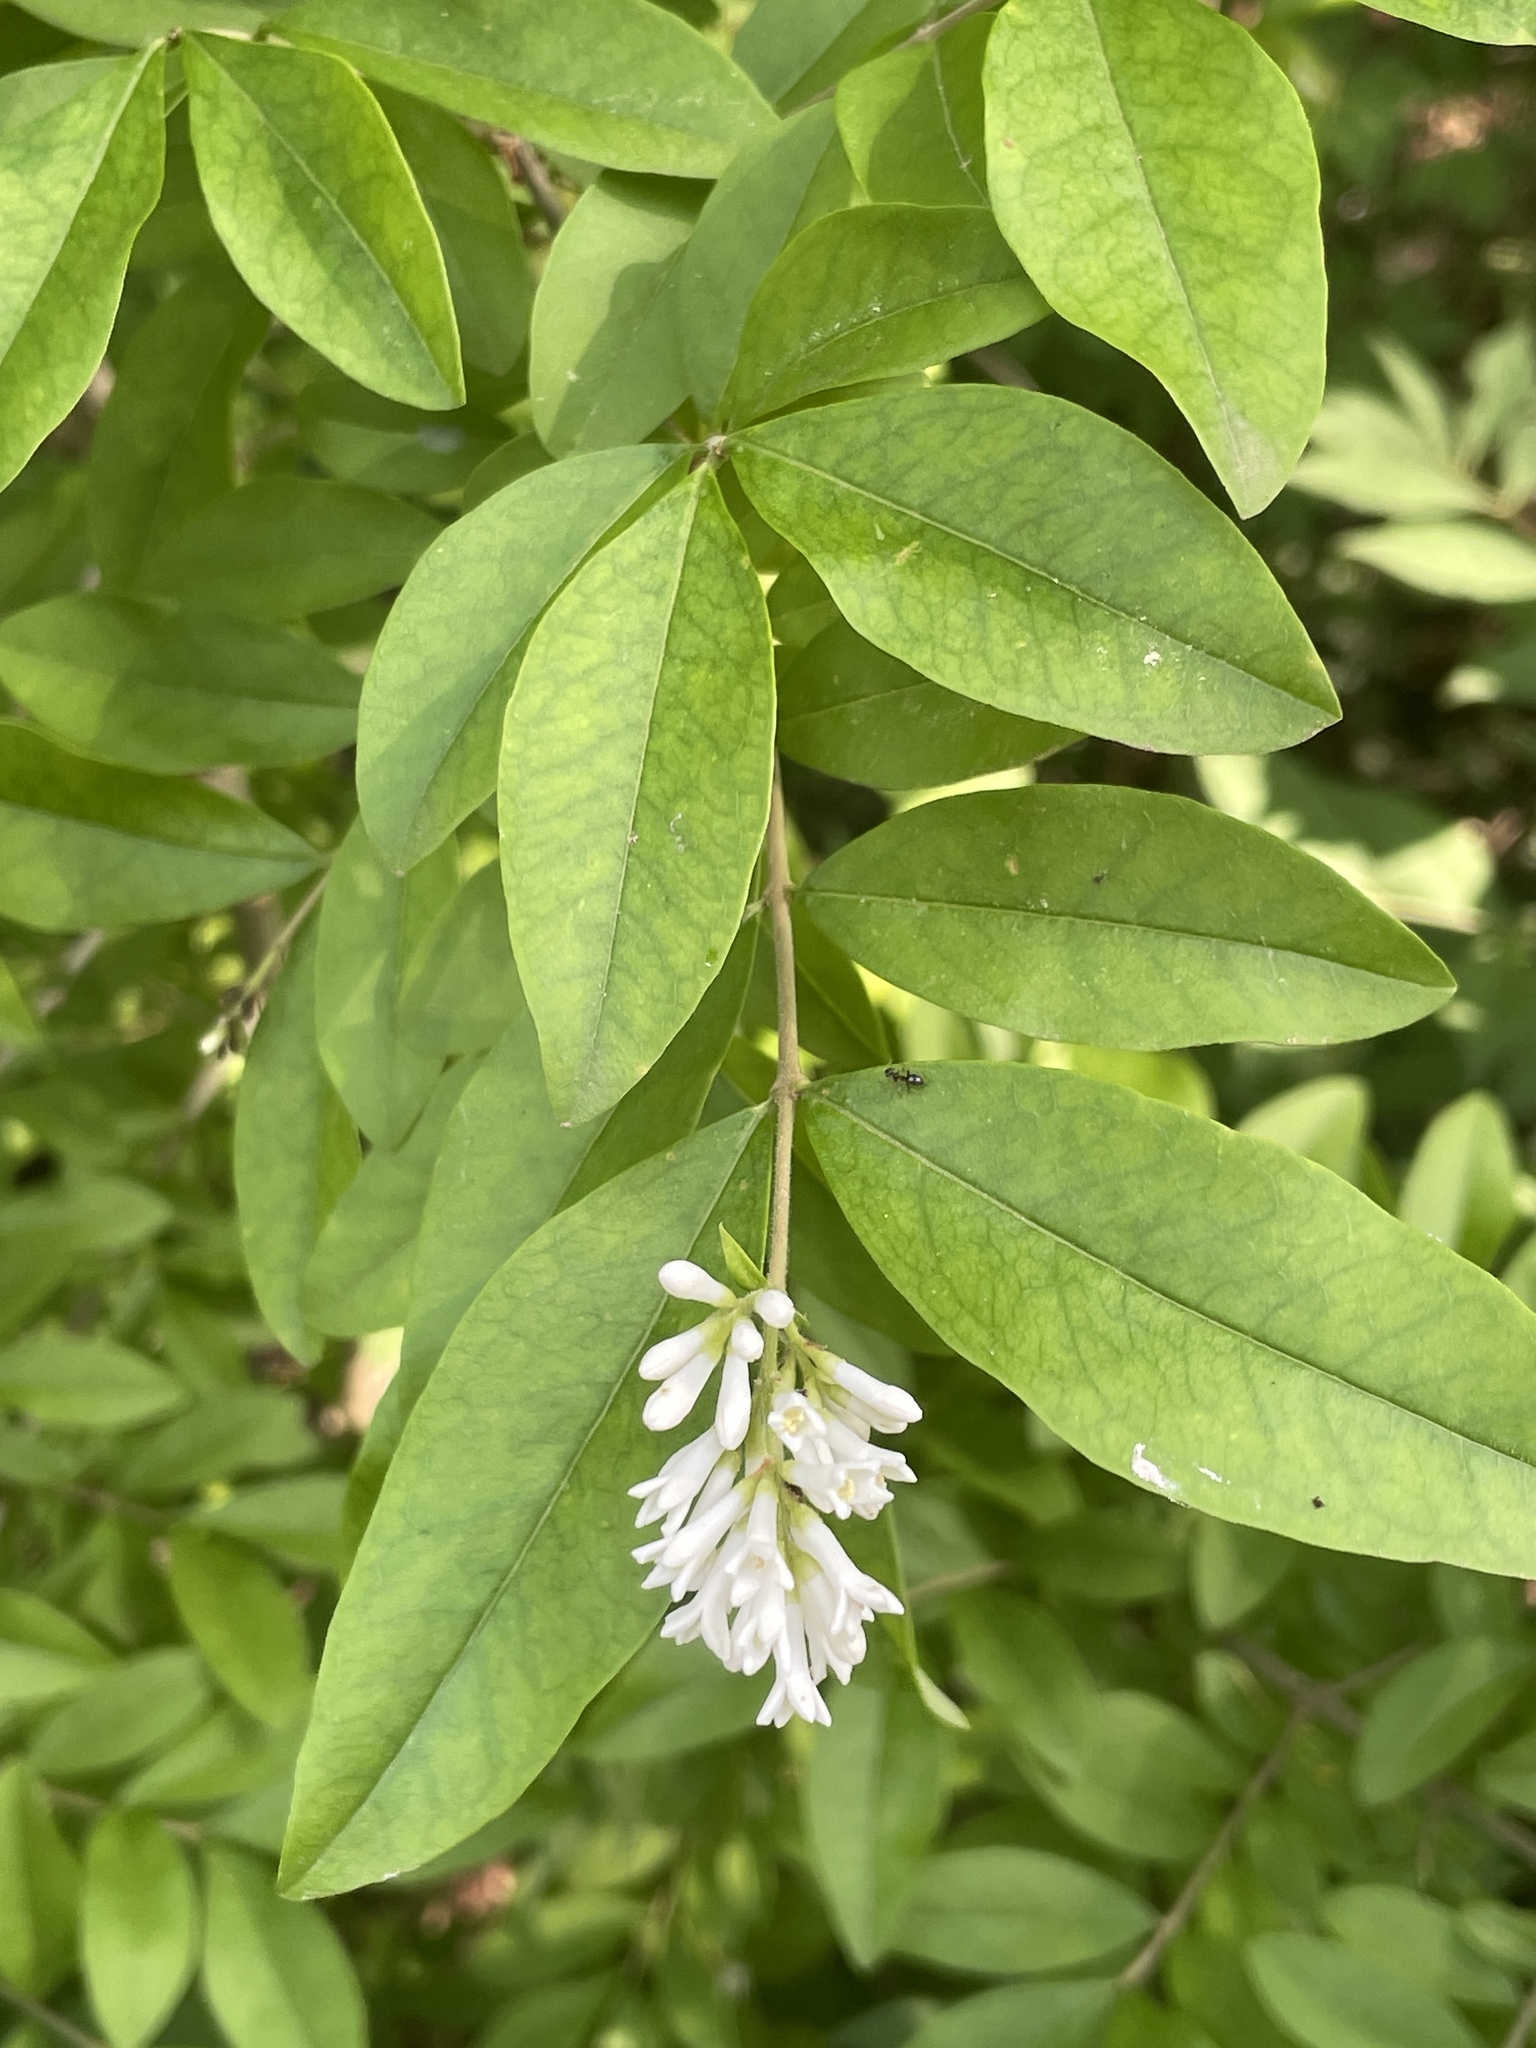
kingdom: Plantae
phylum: Tracheophyta
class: Magnoliopsida
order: Lamiales
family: Oleaceae
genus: Ligustrum
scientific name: Ligustrum obtusifolium
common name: Border privet
